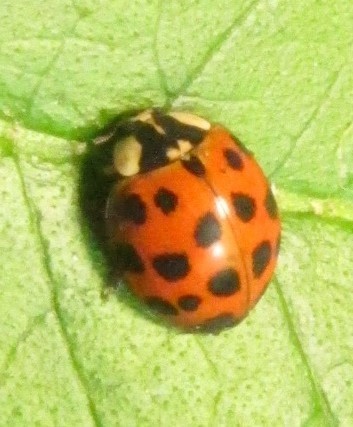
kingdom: Animalia
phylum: Arthropoda
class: Insecta
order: Coleoptera
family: Coccinellidae
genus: Harmonia
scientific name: Harmonia axyridis
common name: Harlequin ladybird
